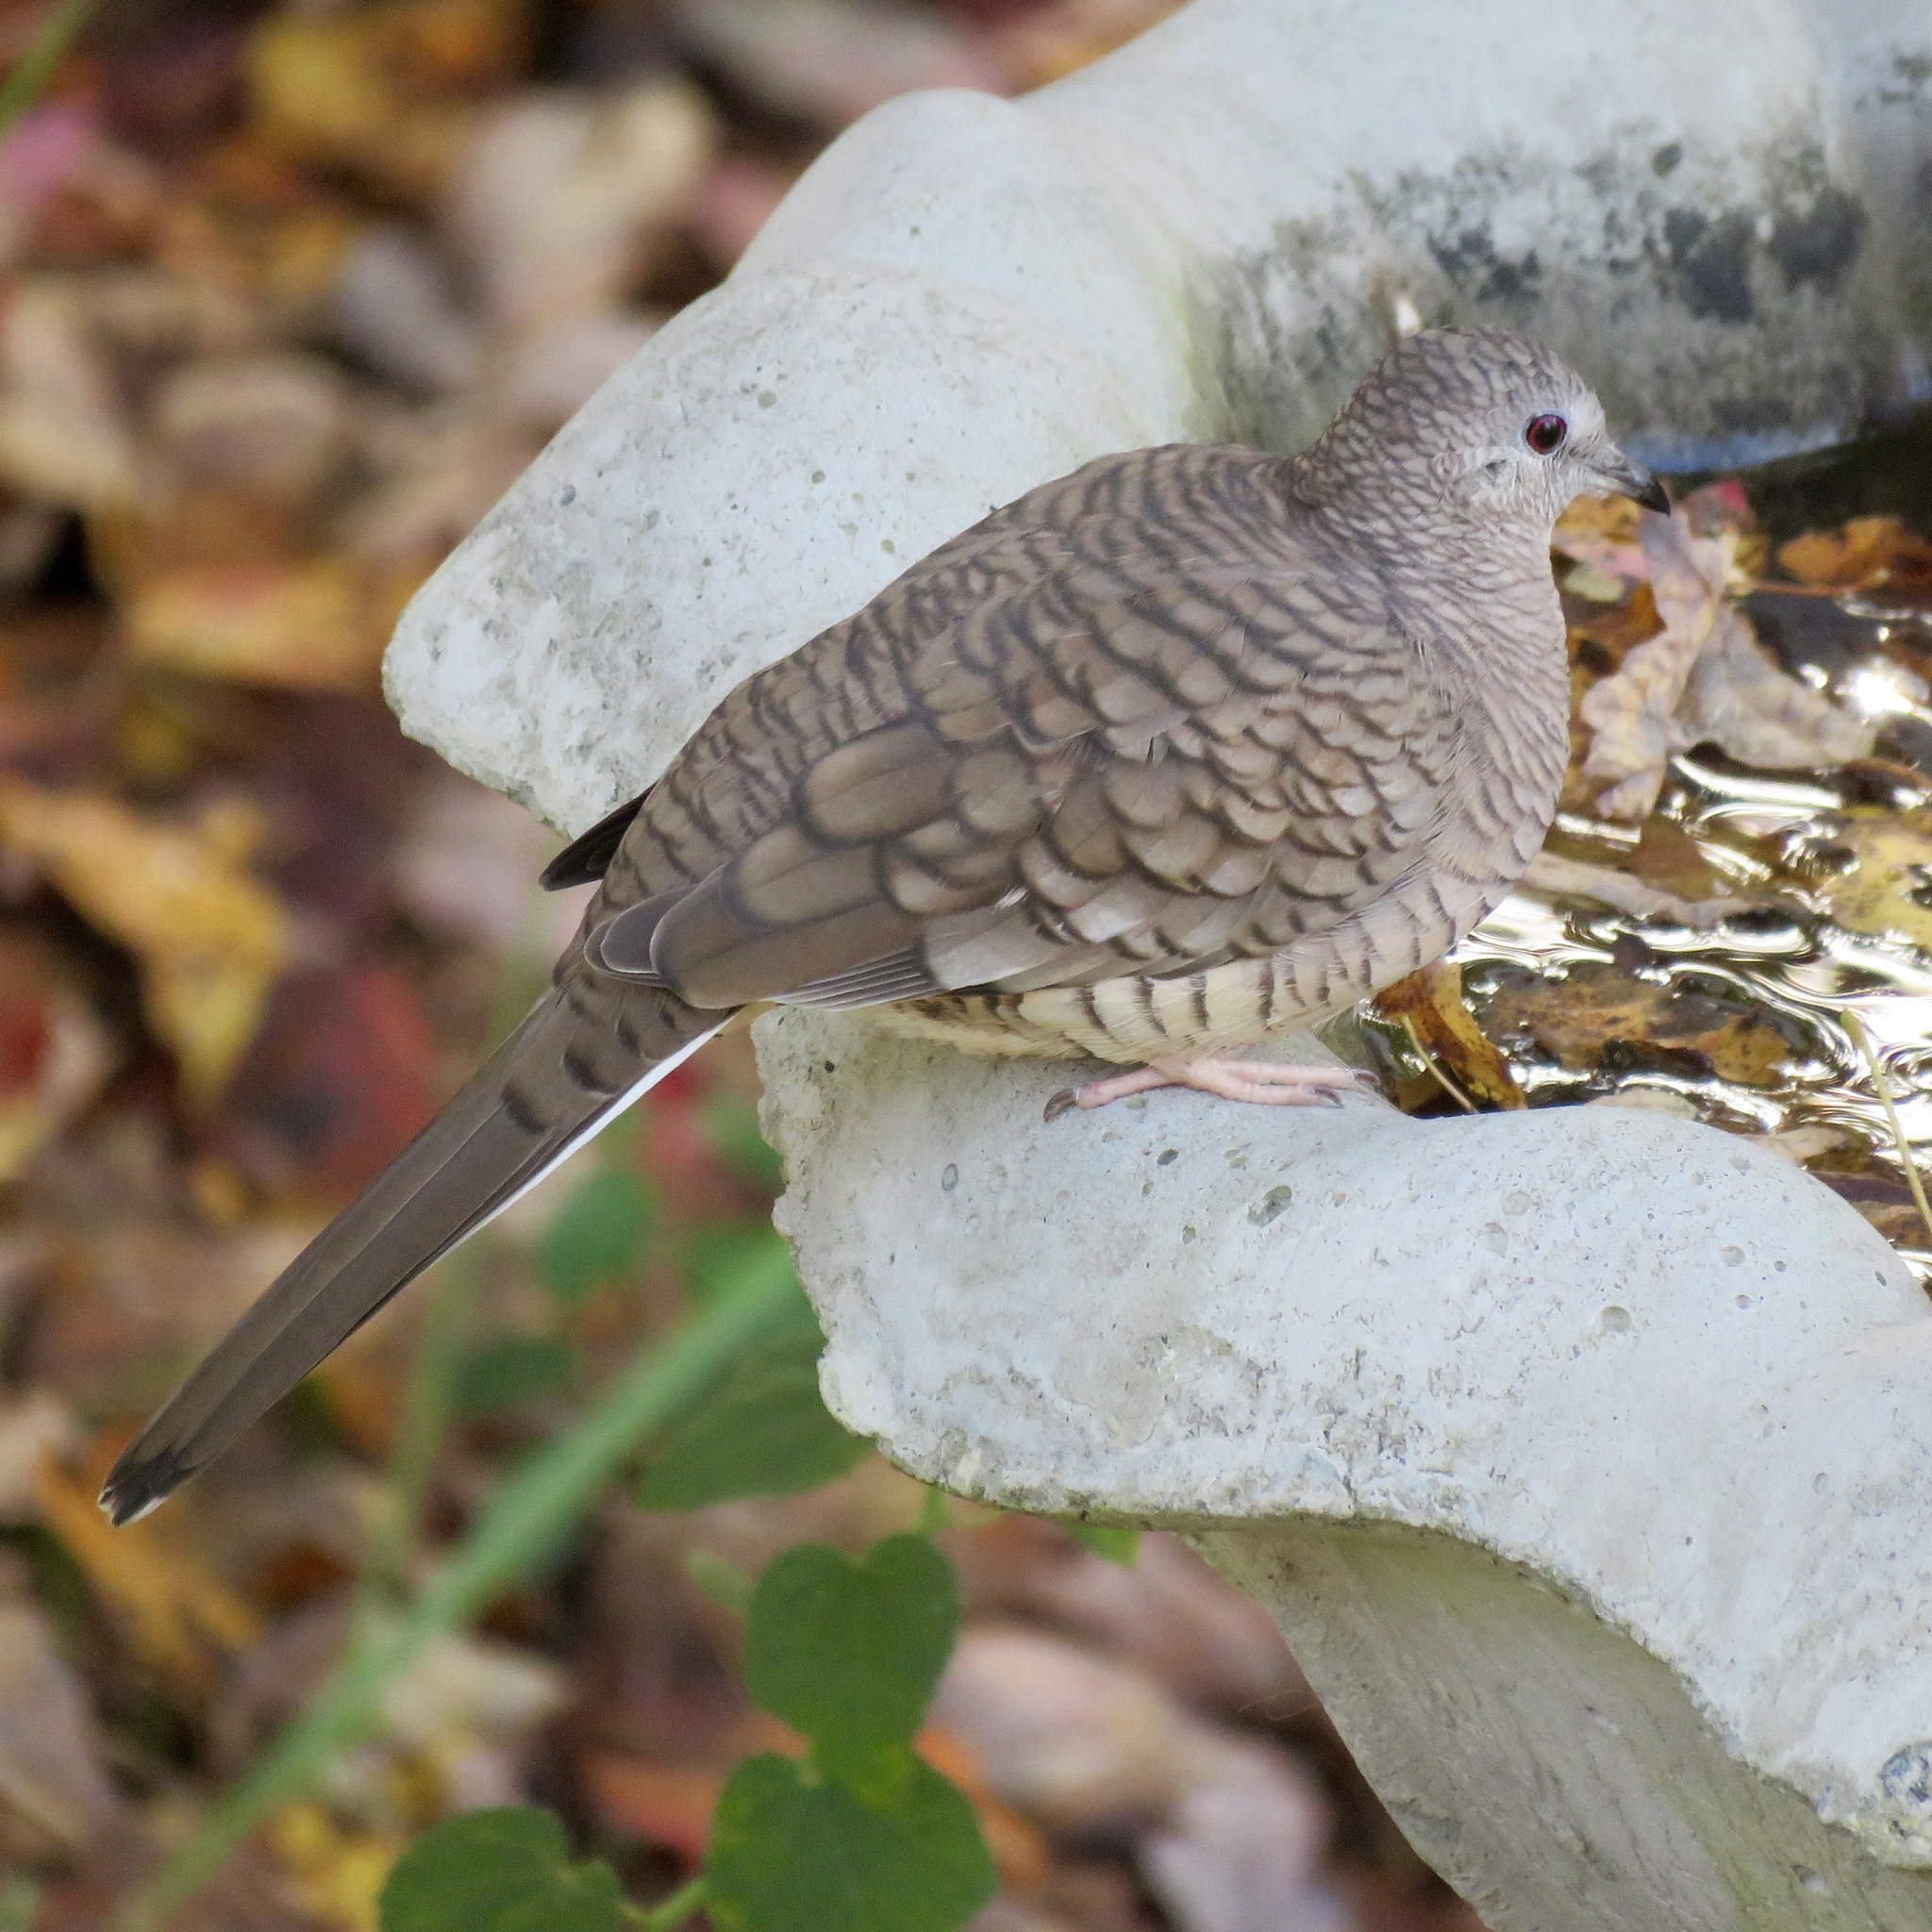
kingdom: Animalia
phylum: Chordata
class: Aves
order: Columbiformes
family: Columbidae
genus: Columbina
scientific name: Columbina inca
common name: Inca dove
